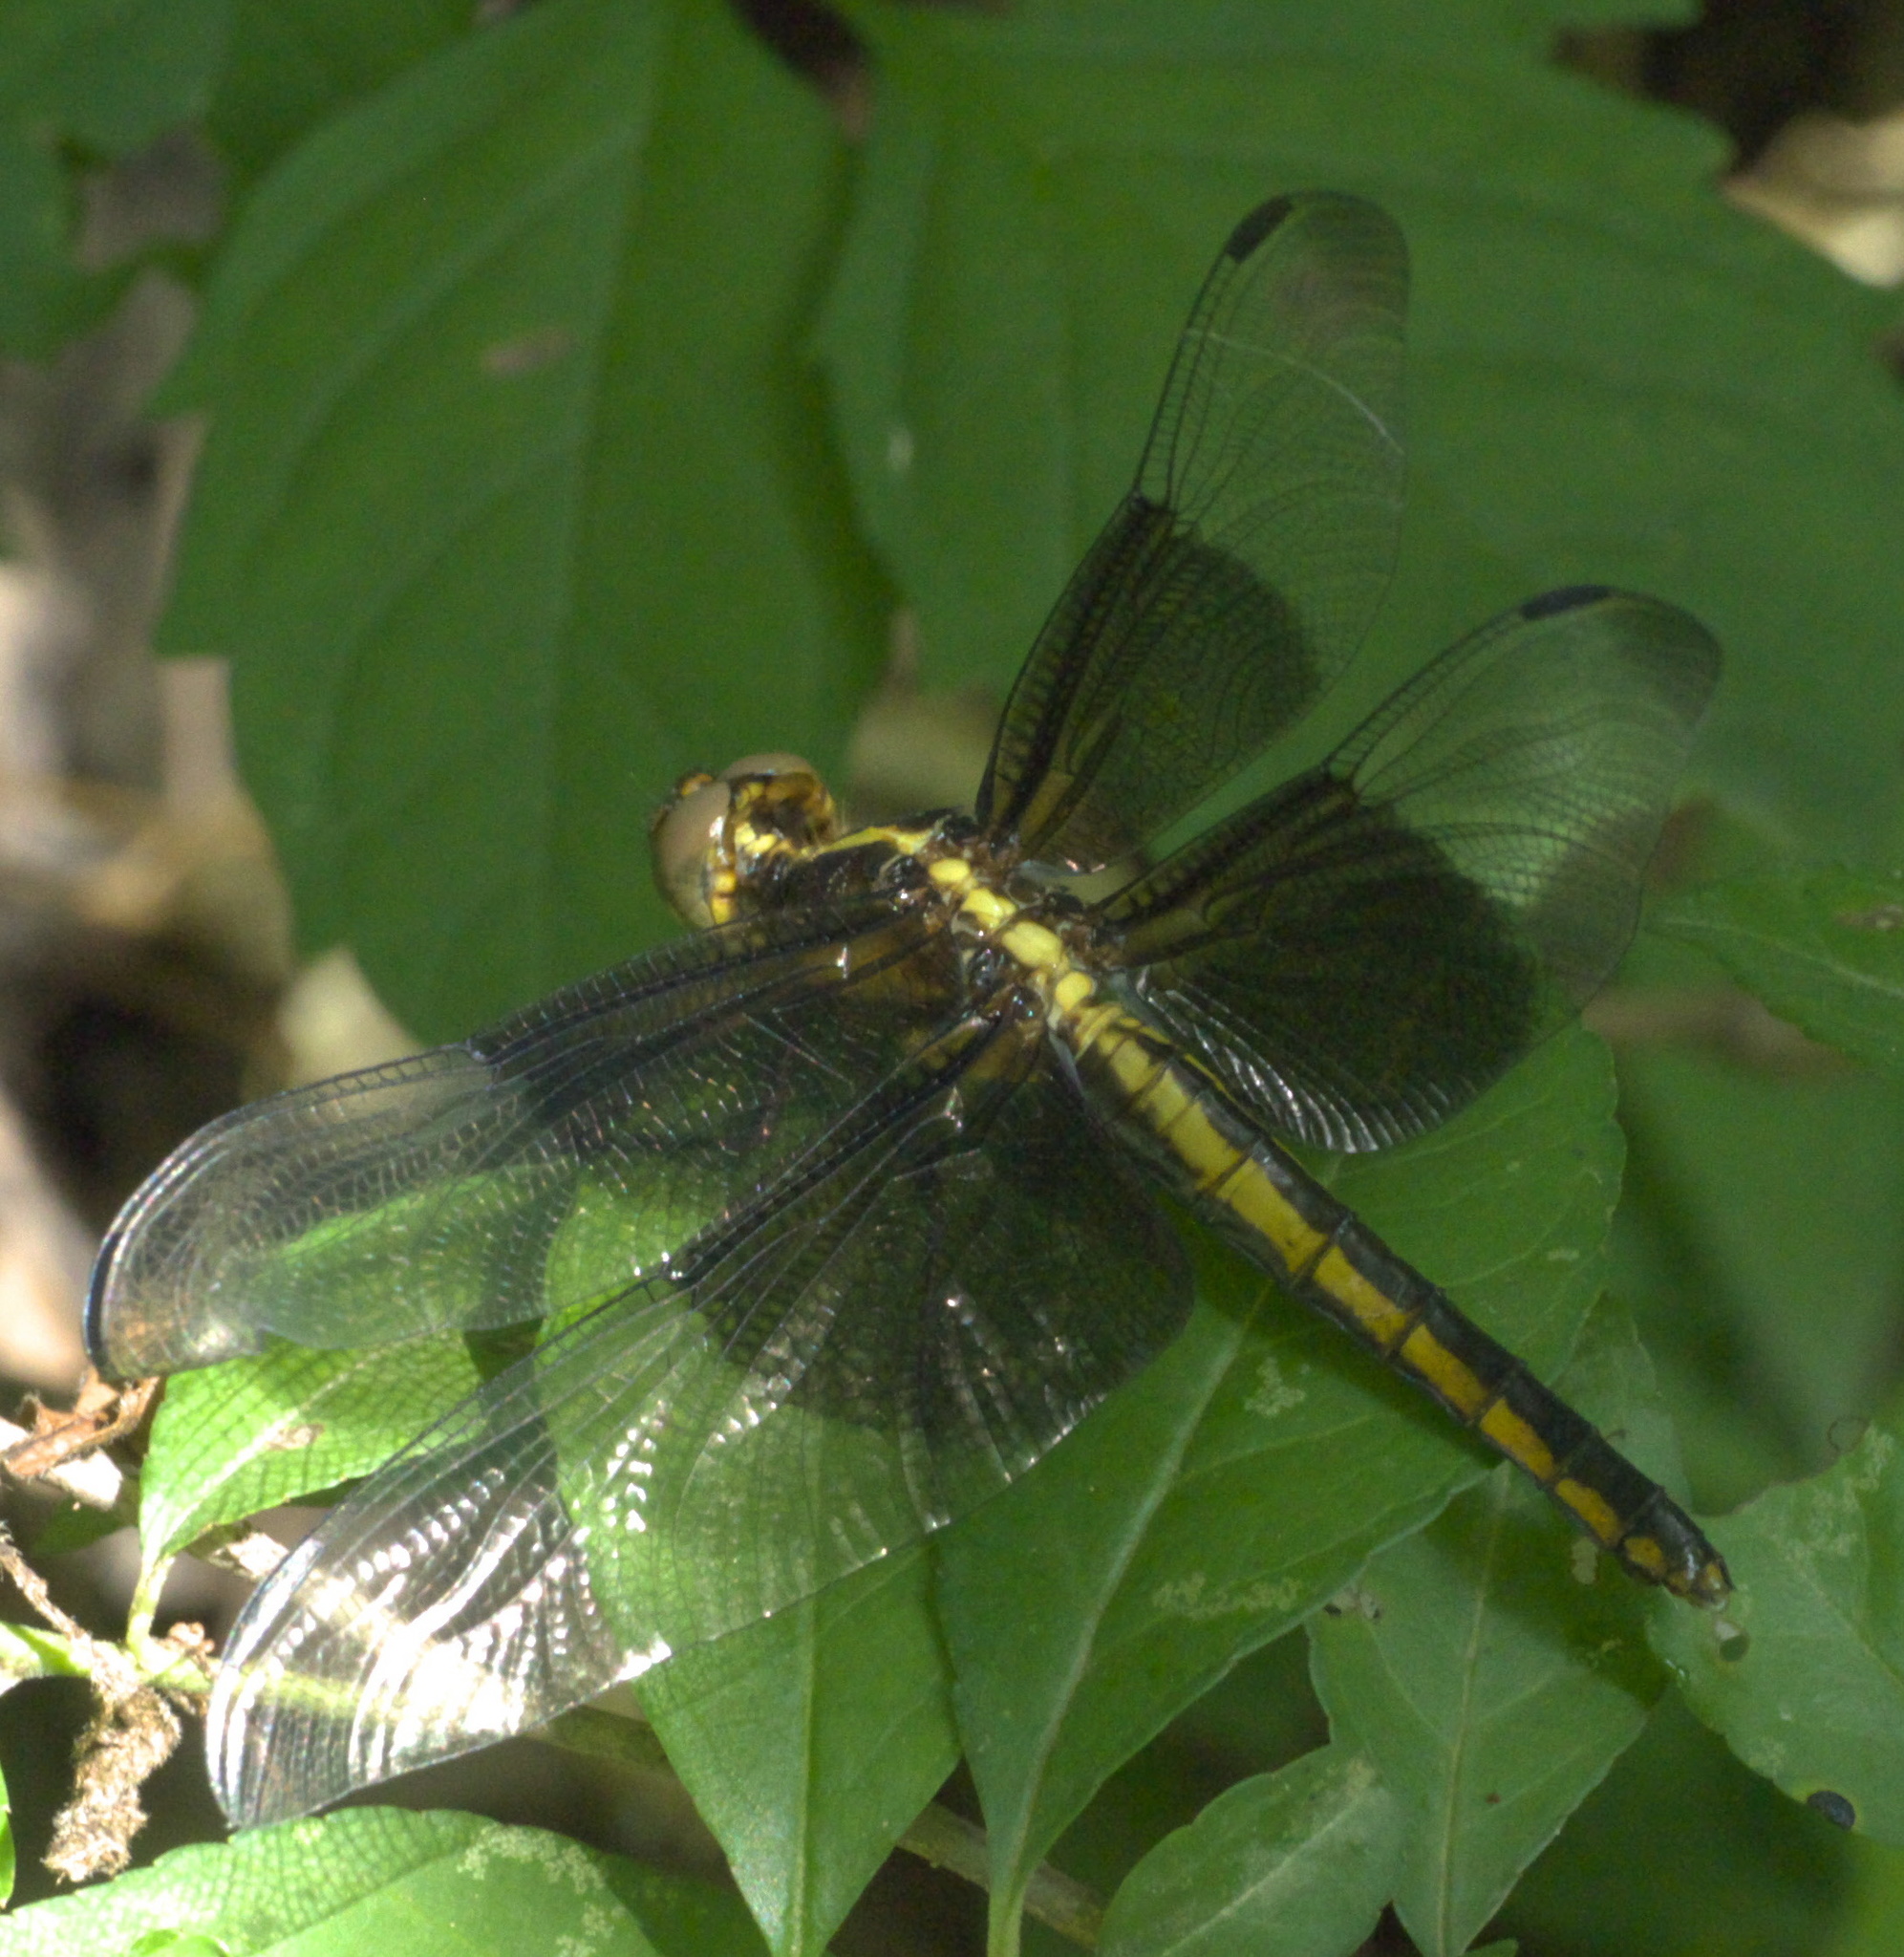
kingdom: Animalia
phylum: Arthropoda
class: Insecta
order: Odonata
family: Libellulidae
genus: Libellula
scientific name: Libellula luctuosa
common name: Widow skimmer
